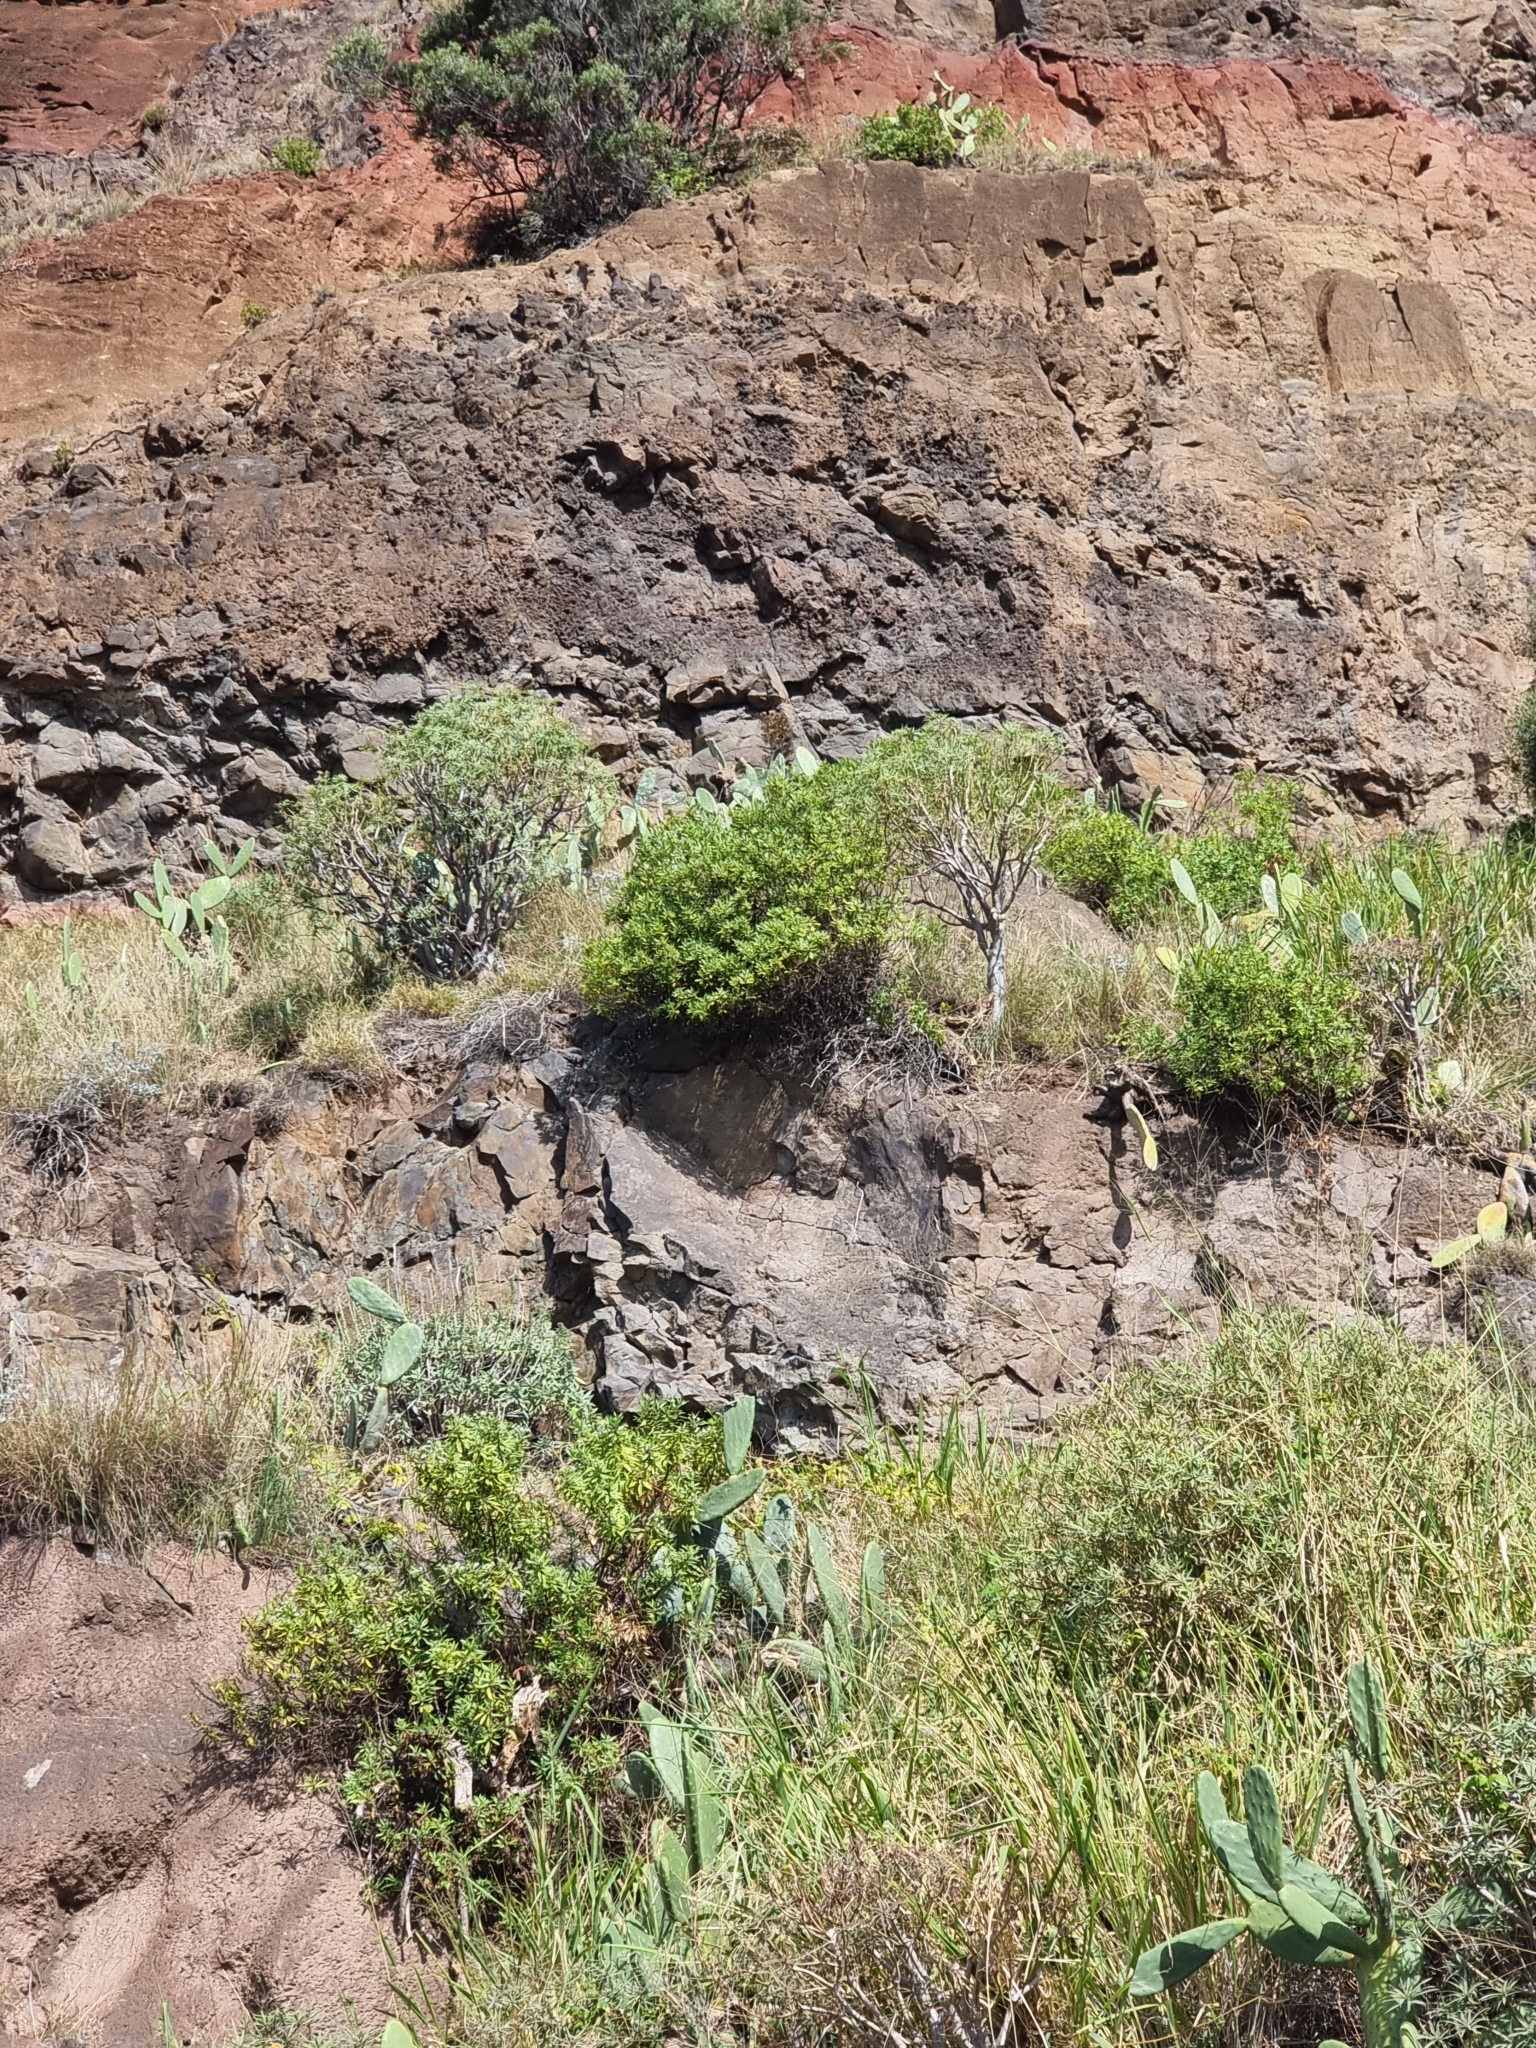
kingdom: Plantae
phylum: Tracheophyta
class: Magnoliopsida
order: Lamiales
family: Plantaginaceae
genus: Globularia
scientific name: Globularia salicina
